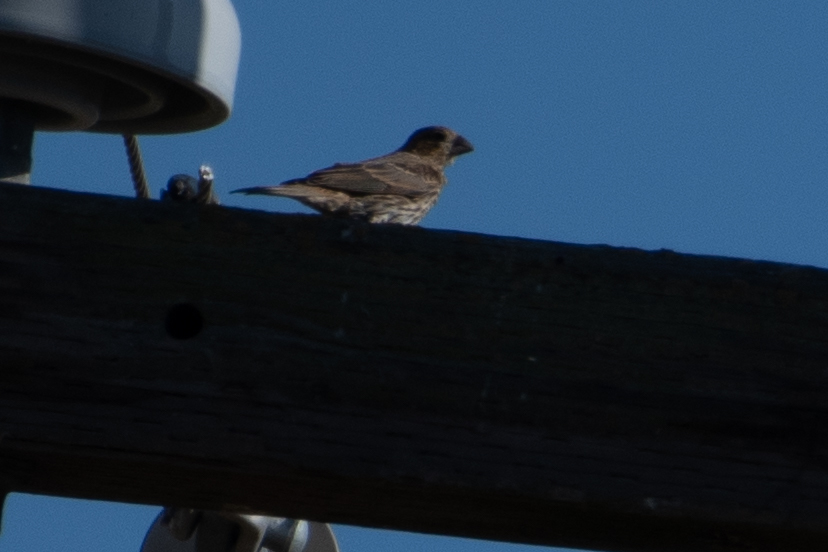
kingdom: Animalia
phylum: Chordata
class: Aves
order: Passeriformes
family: Fringillidae
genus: Haemorhous
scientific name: Haemorhous mexicanus
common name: House finch
